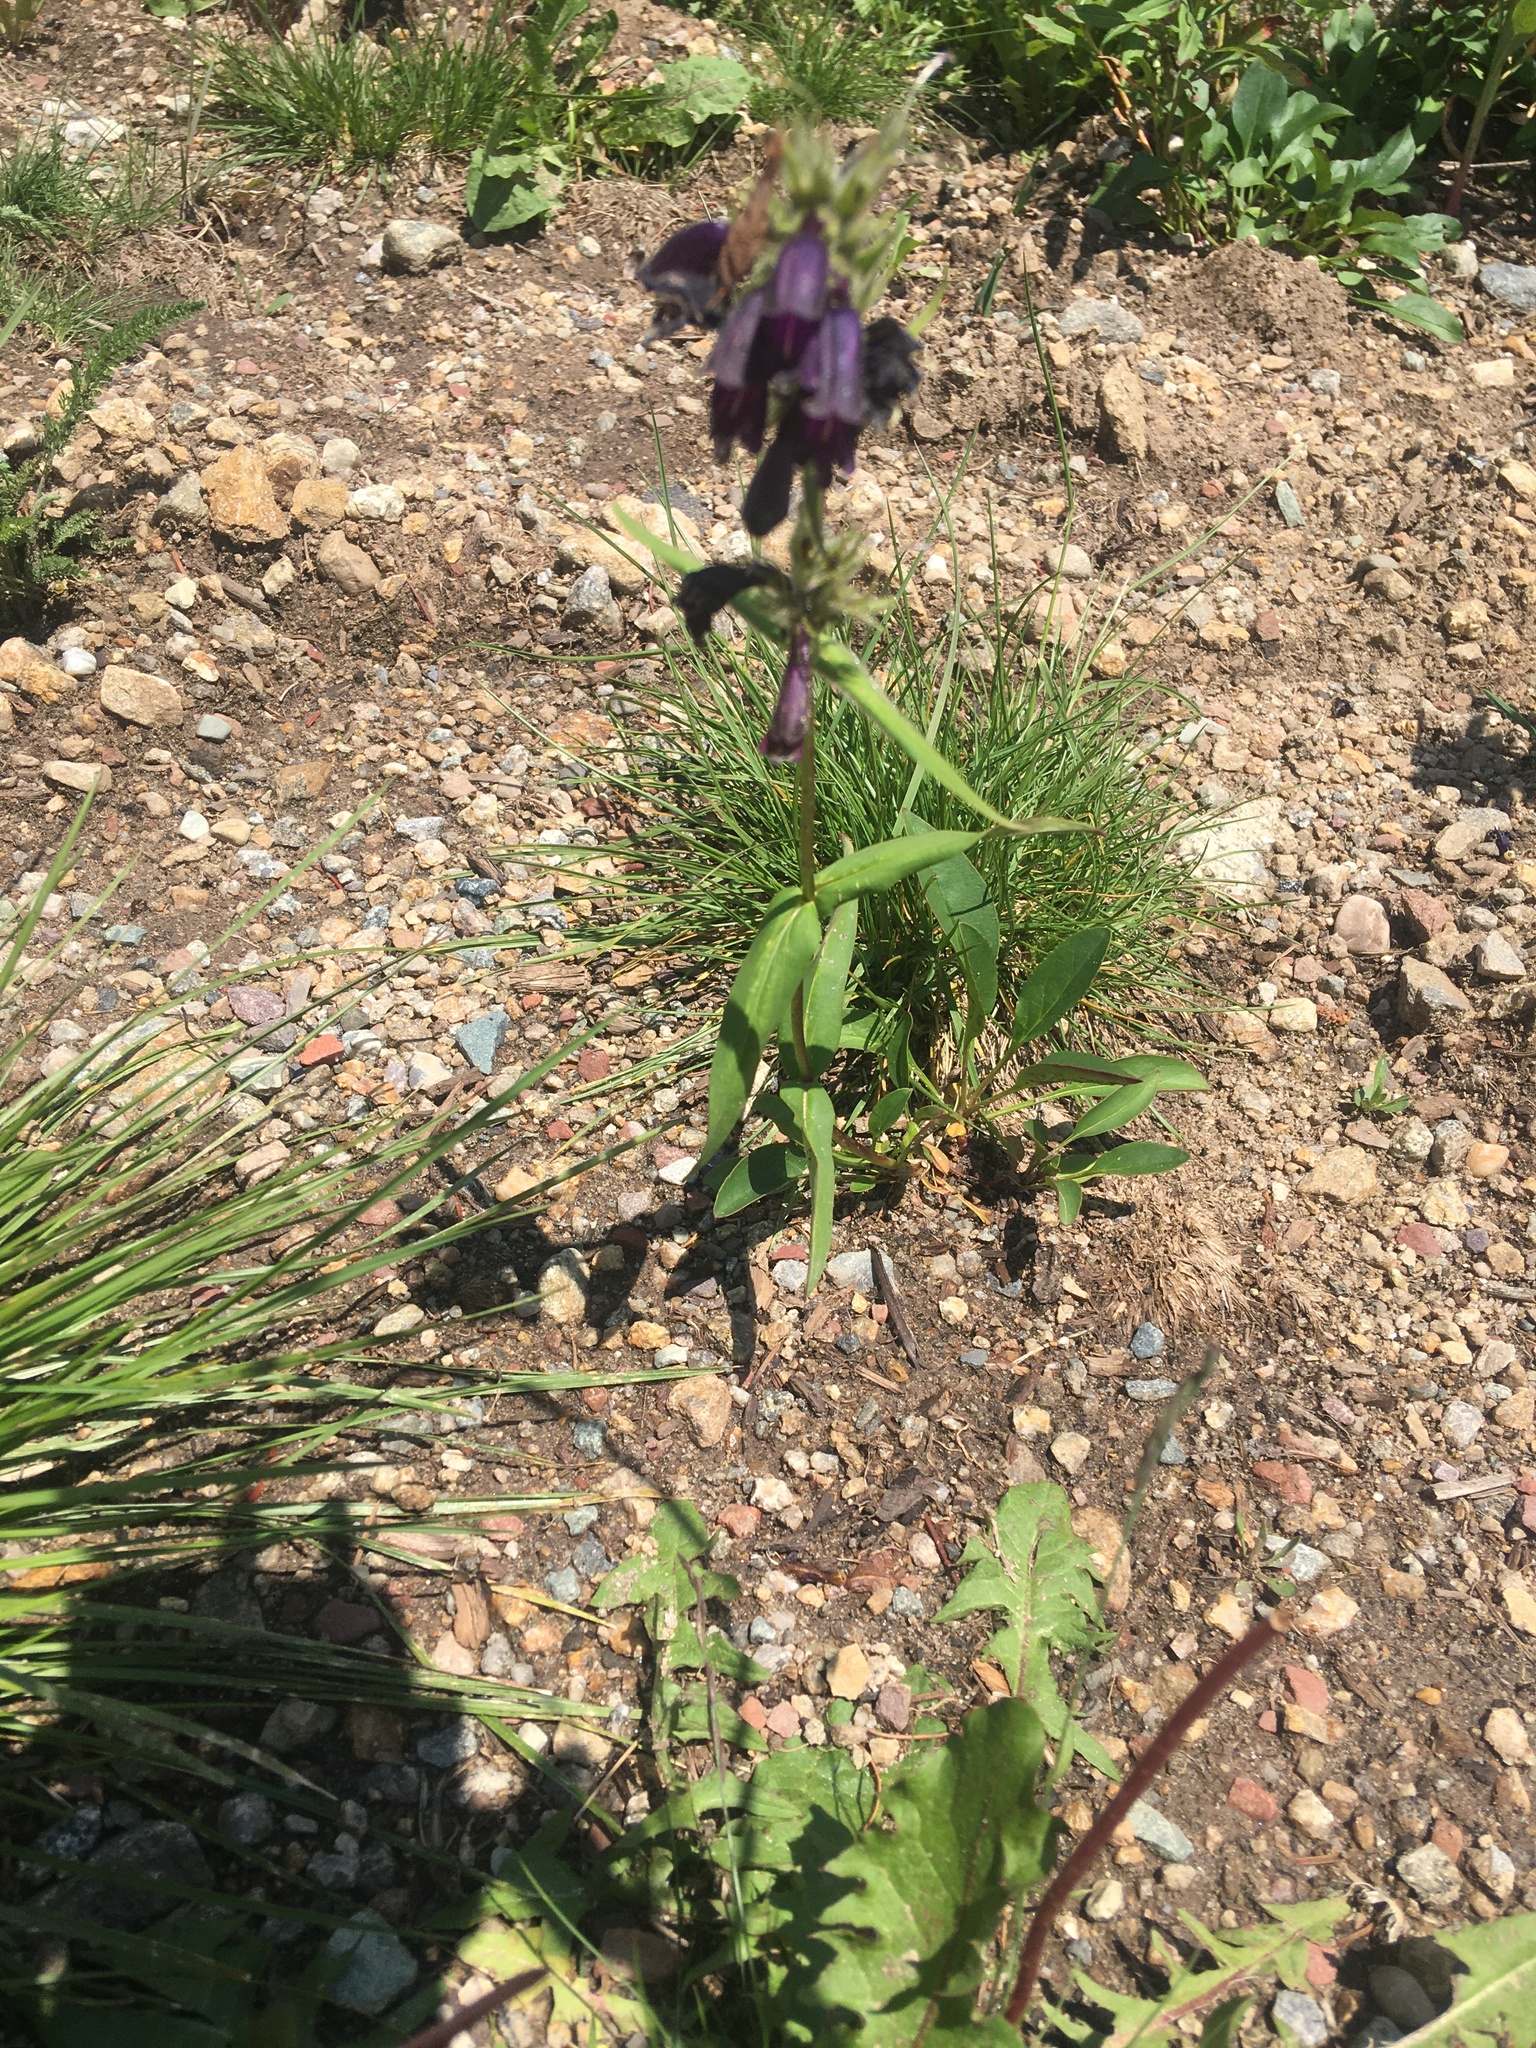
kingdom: Plantae
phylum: Tracheophyta
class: Magnoliopsida
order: Lamiales
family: Plantaginaceae
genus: Penstemon
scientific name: Penstemon whippleanus
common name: Whipple's penstemon
